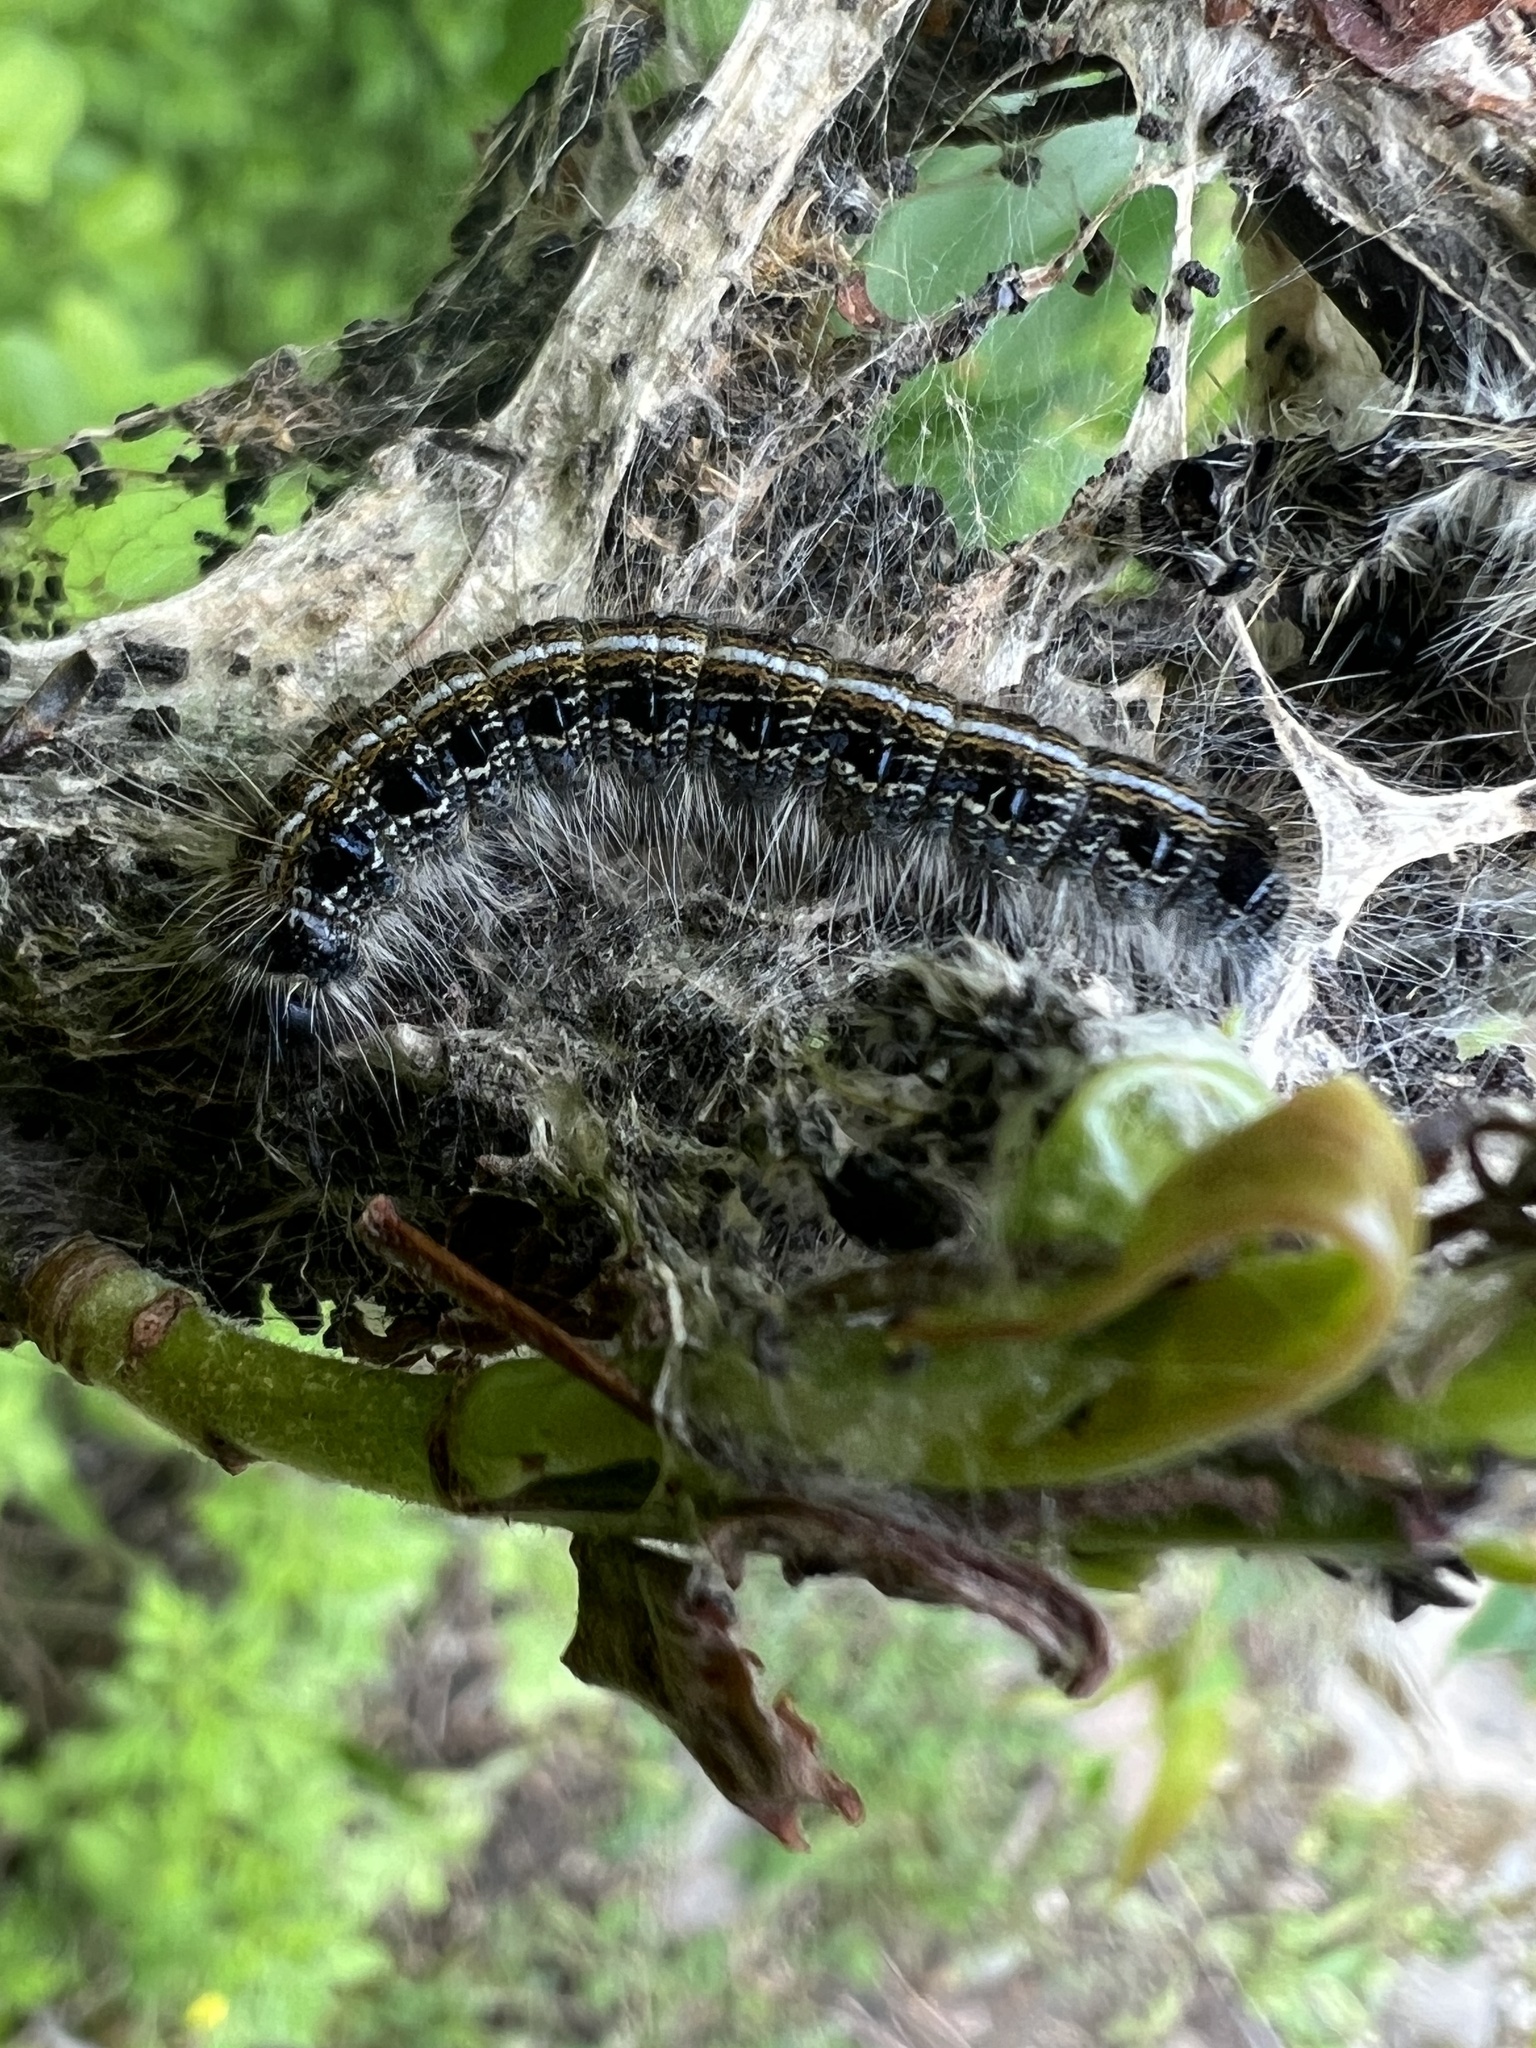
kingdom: Animalia
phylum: Arthropoda
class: Insecta
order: Lepidoptera
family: Lasiocampidae
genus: Malacosoma
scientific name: Malacosoma americana
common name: Eastern tent caterpillar moth
